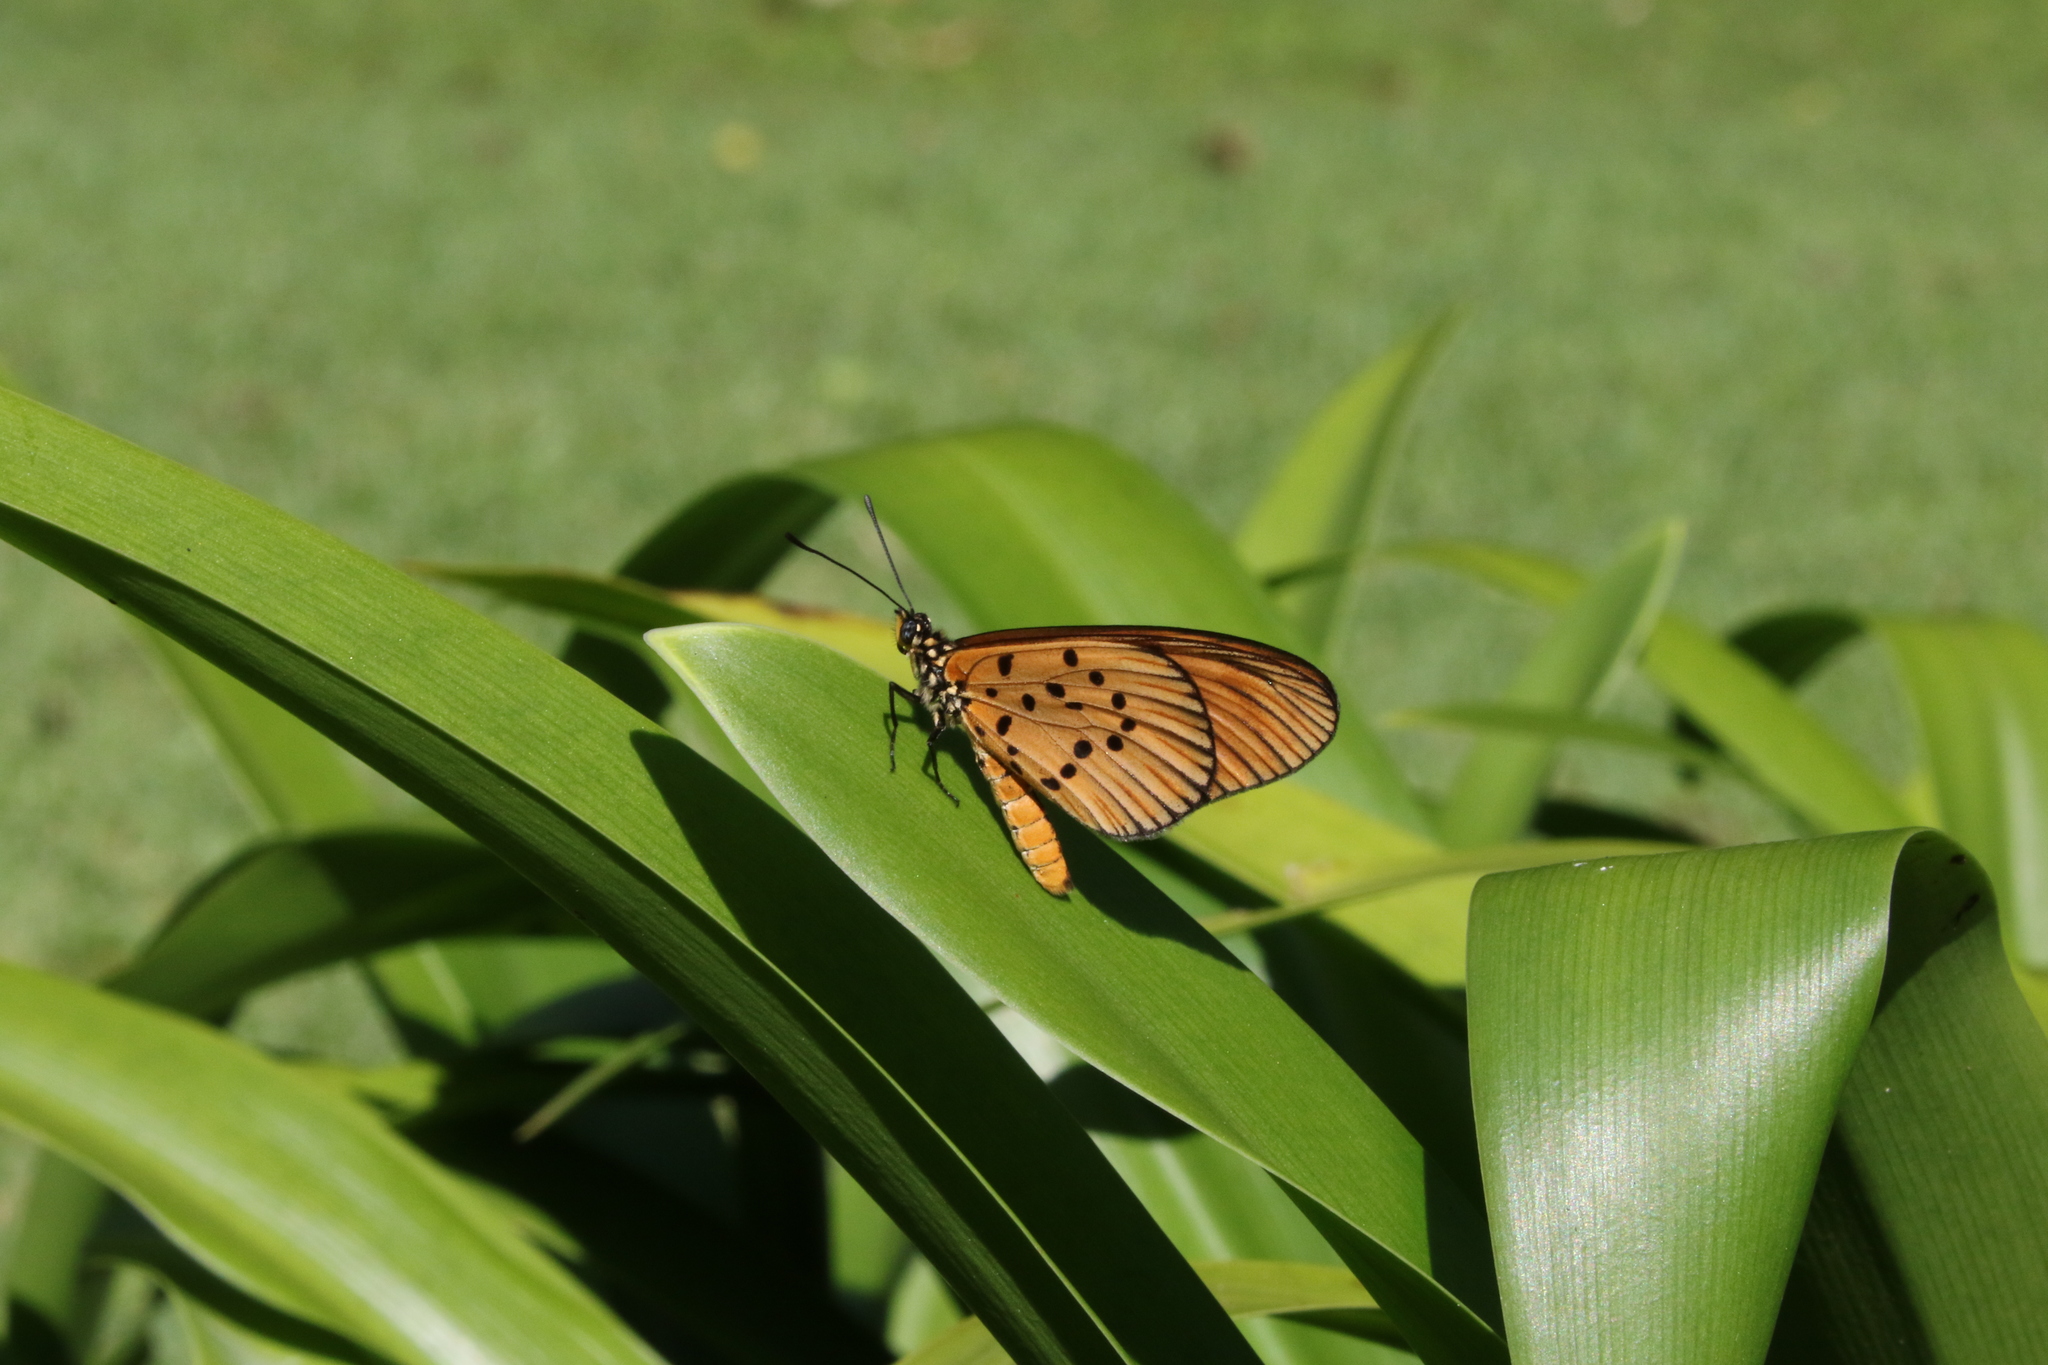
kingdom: Animalia
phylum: Arthropoda
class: Insecta
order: Lepidoptera
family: Nymphalidae
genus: Acraea
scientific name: Acraea Telchinia encedon
